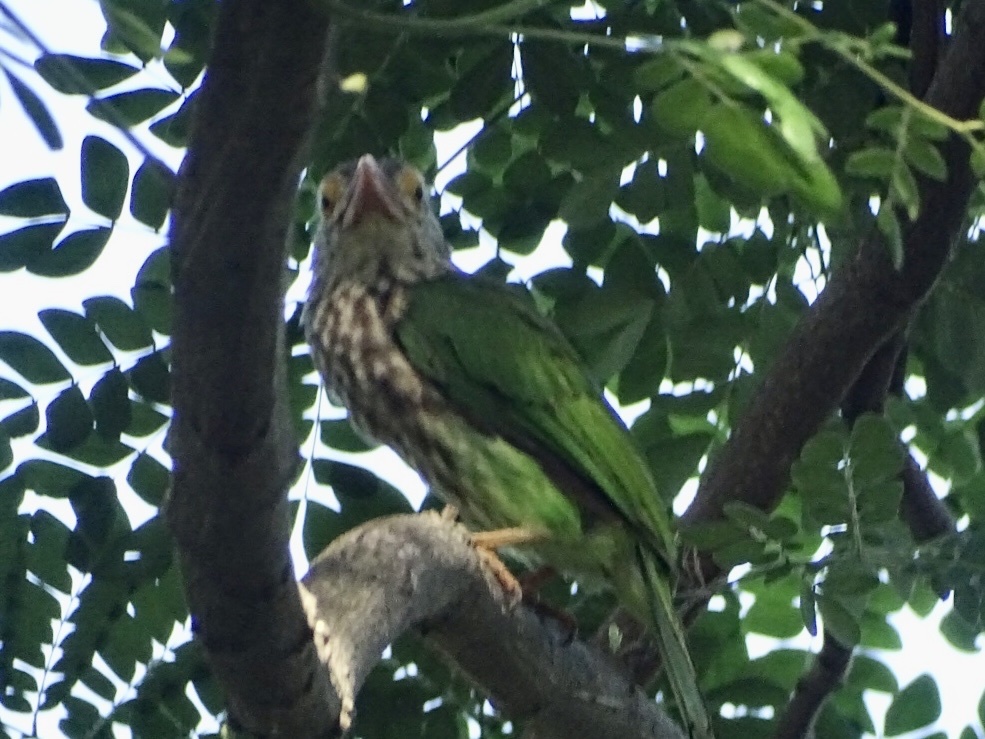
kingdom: Animalia
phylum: Chordata
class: Aves
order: Piciformes
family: Megalaimidae
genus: Psilopogon
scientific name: Psilopogon lineatus
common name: Lineated barbet
